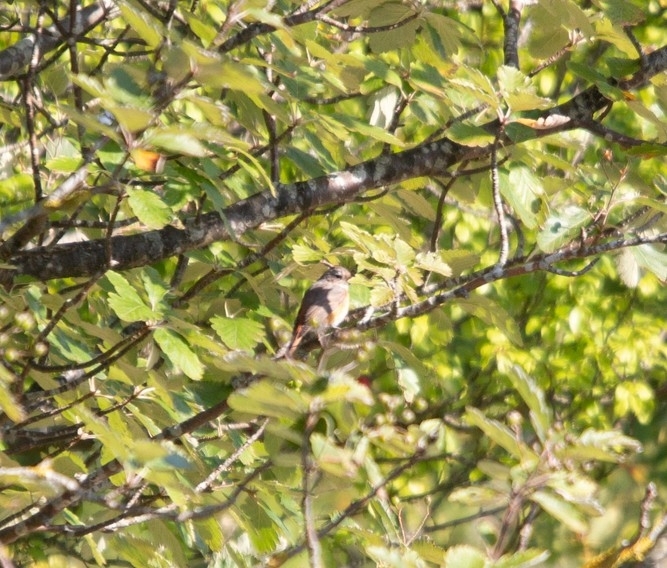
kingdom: Animalia
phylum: Chordata
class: Aves
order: Passeriformes
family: Muscicapidae
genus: Phoenicurus
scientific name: Phoenicurus phoenicurus
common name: Common redstart
